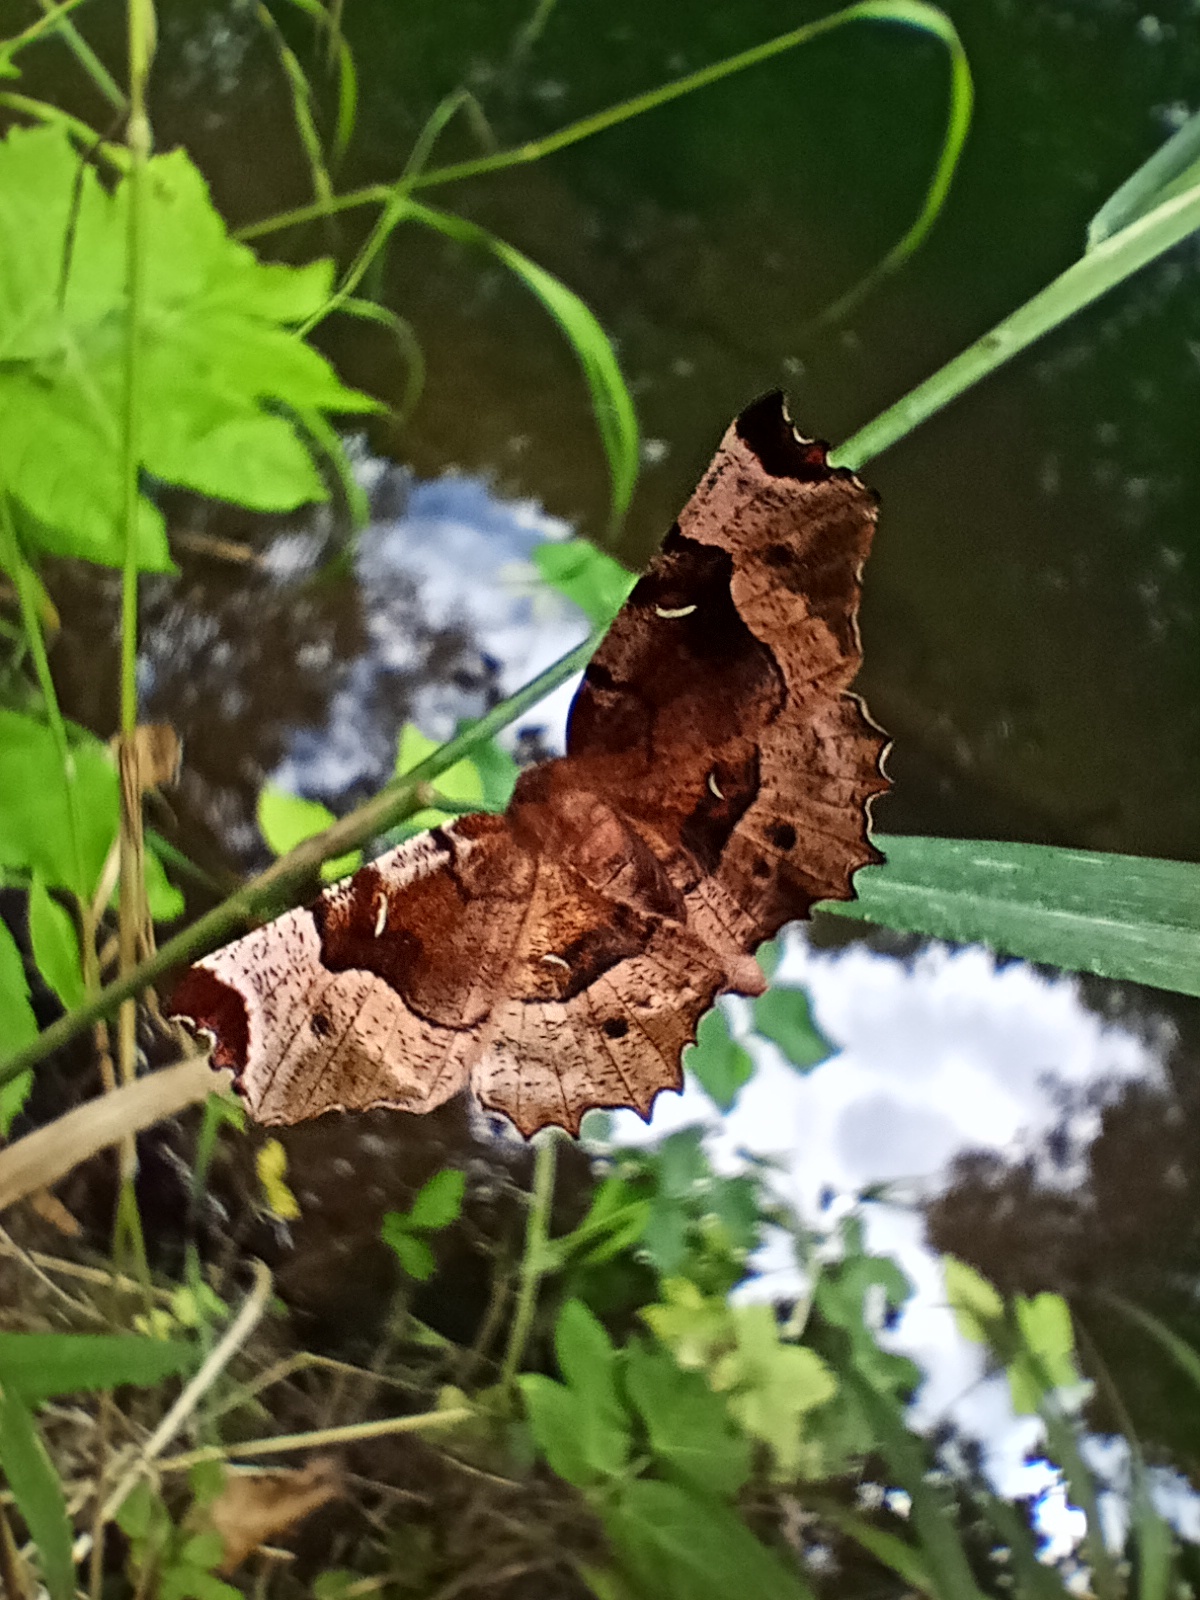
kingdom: Animalia
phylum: Arthropoda
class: Insecta
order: Lepidoptera
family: Geometridae
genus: Selenia
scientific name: Selenia tetralunaria
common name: Purple thorn
